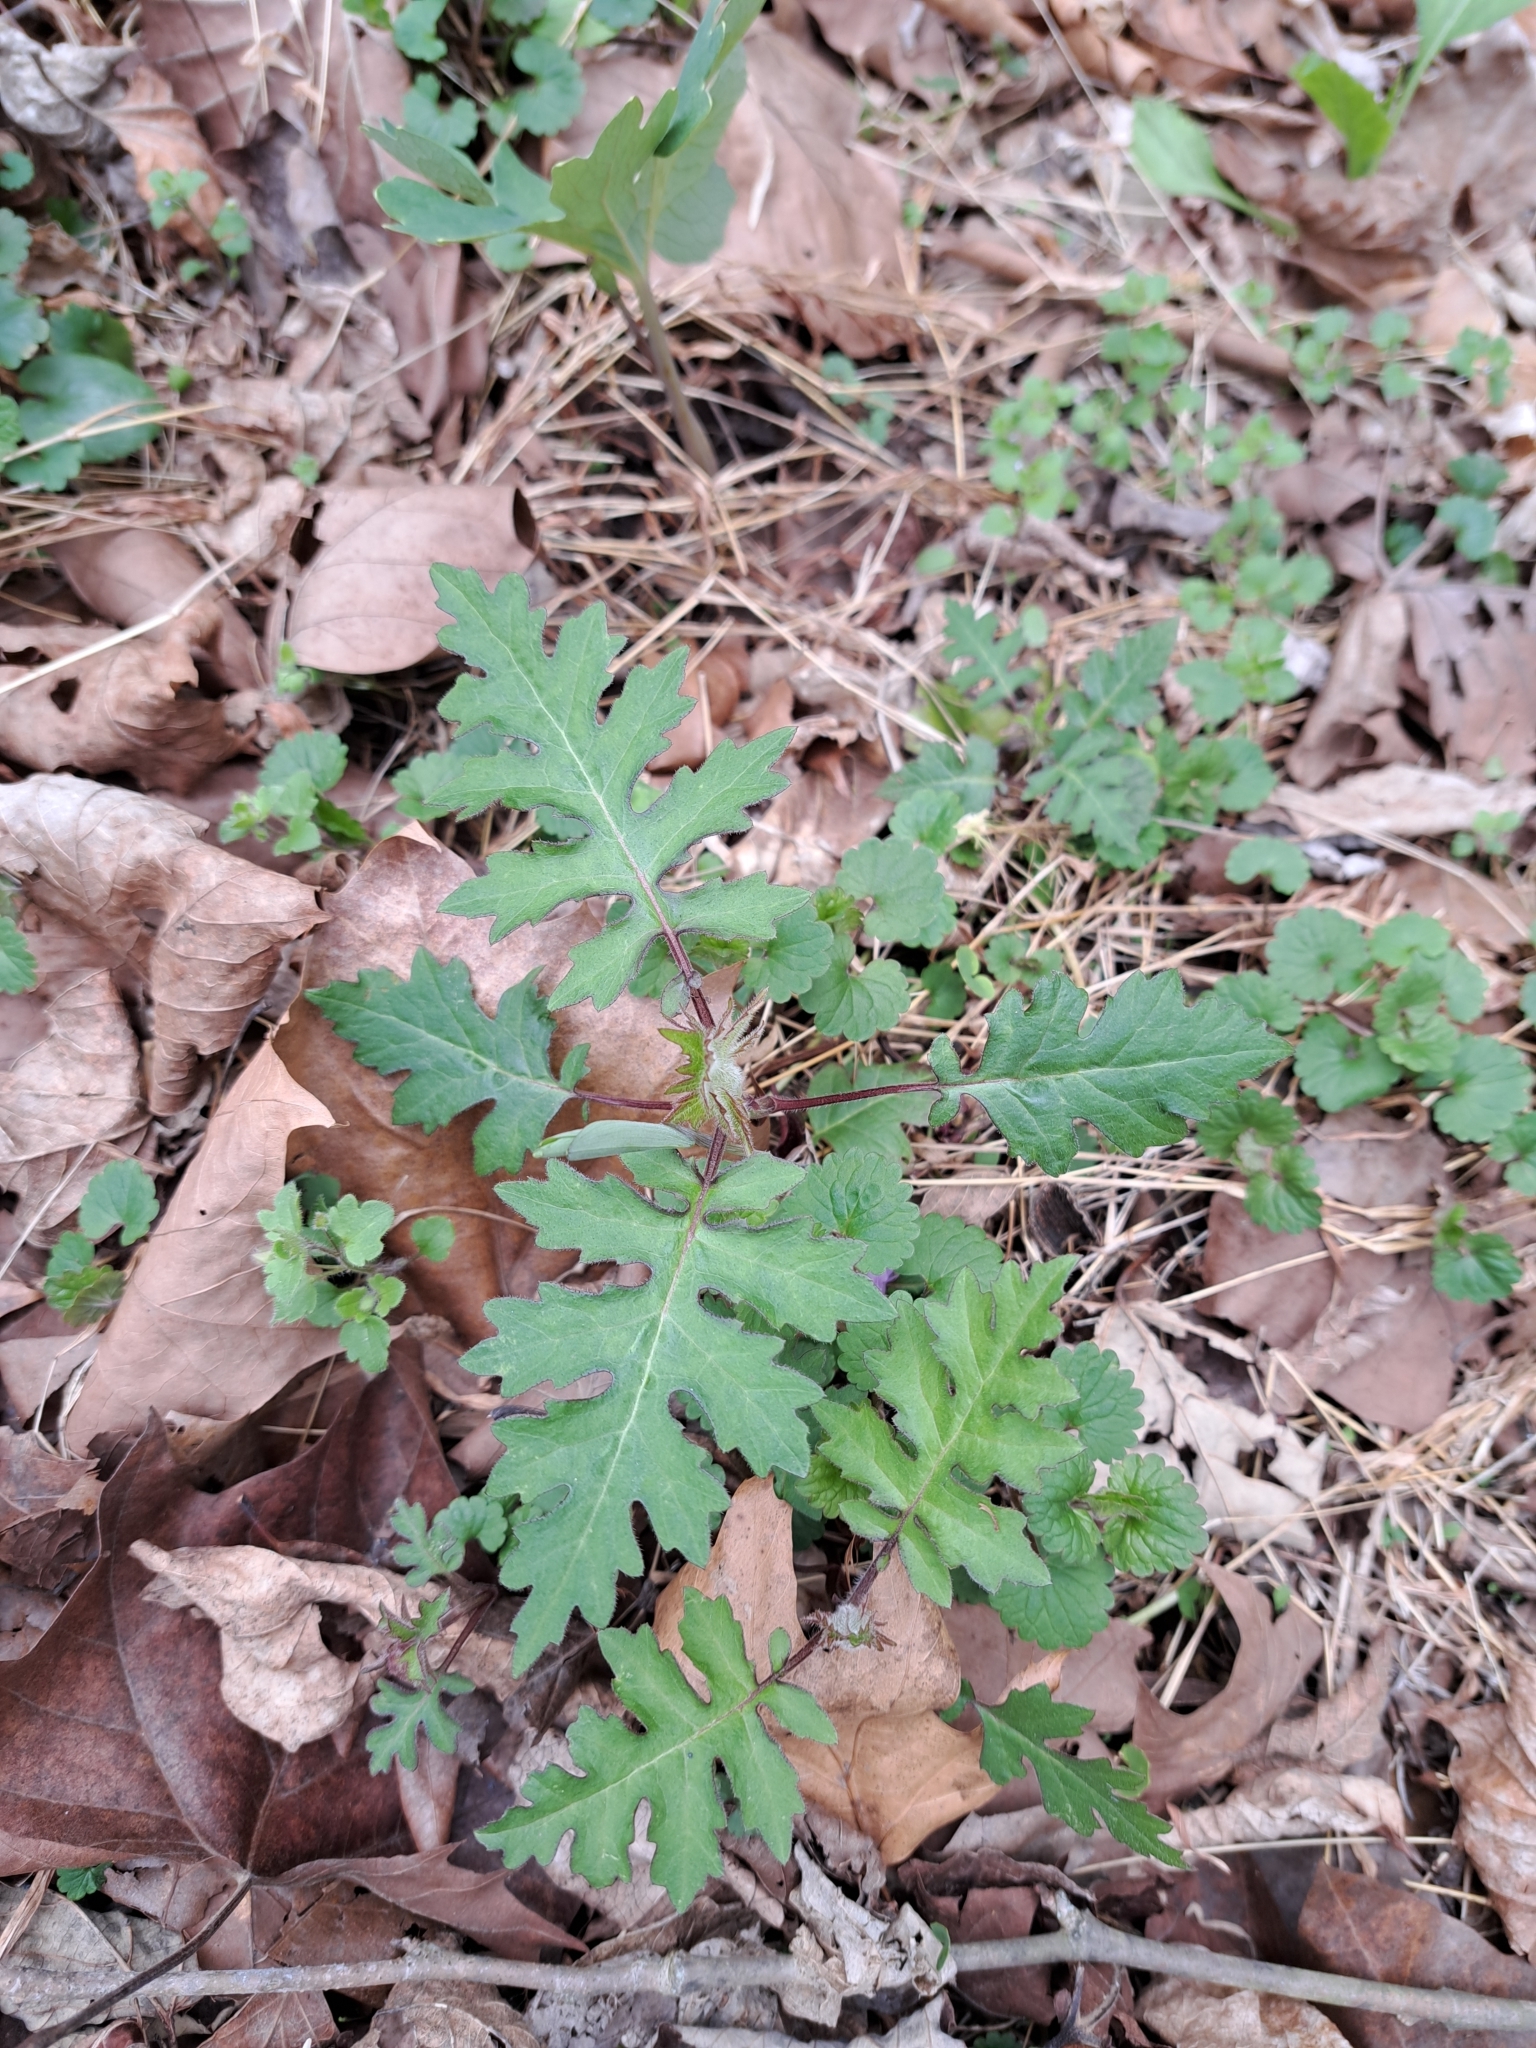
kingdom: Plantae
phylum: Tracheophyta
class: Magnoliopsida
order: Asterales
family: Asteraceae
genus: Polymnia
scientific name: Polymnia canadensis
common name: Pale-flowered leafcup
